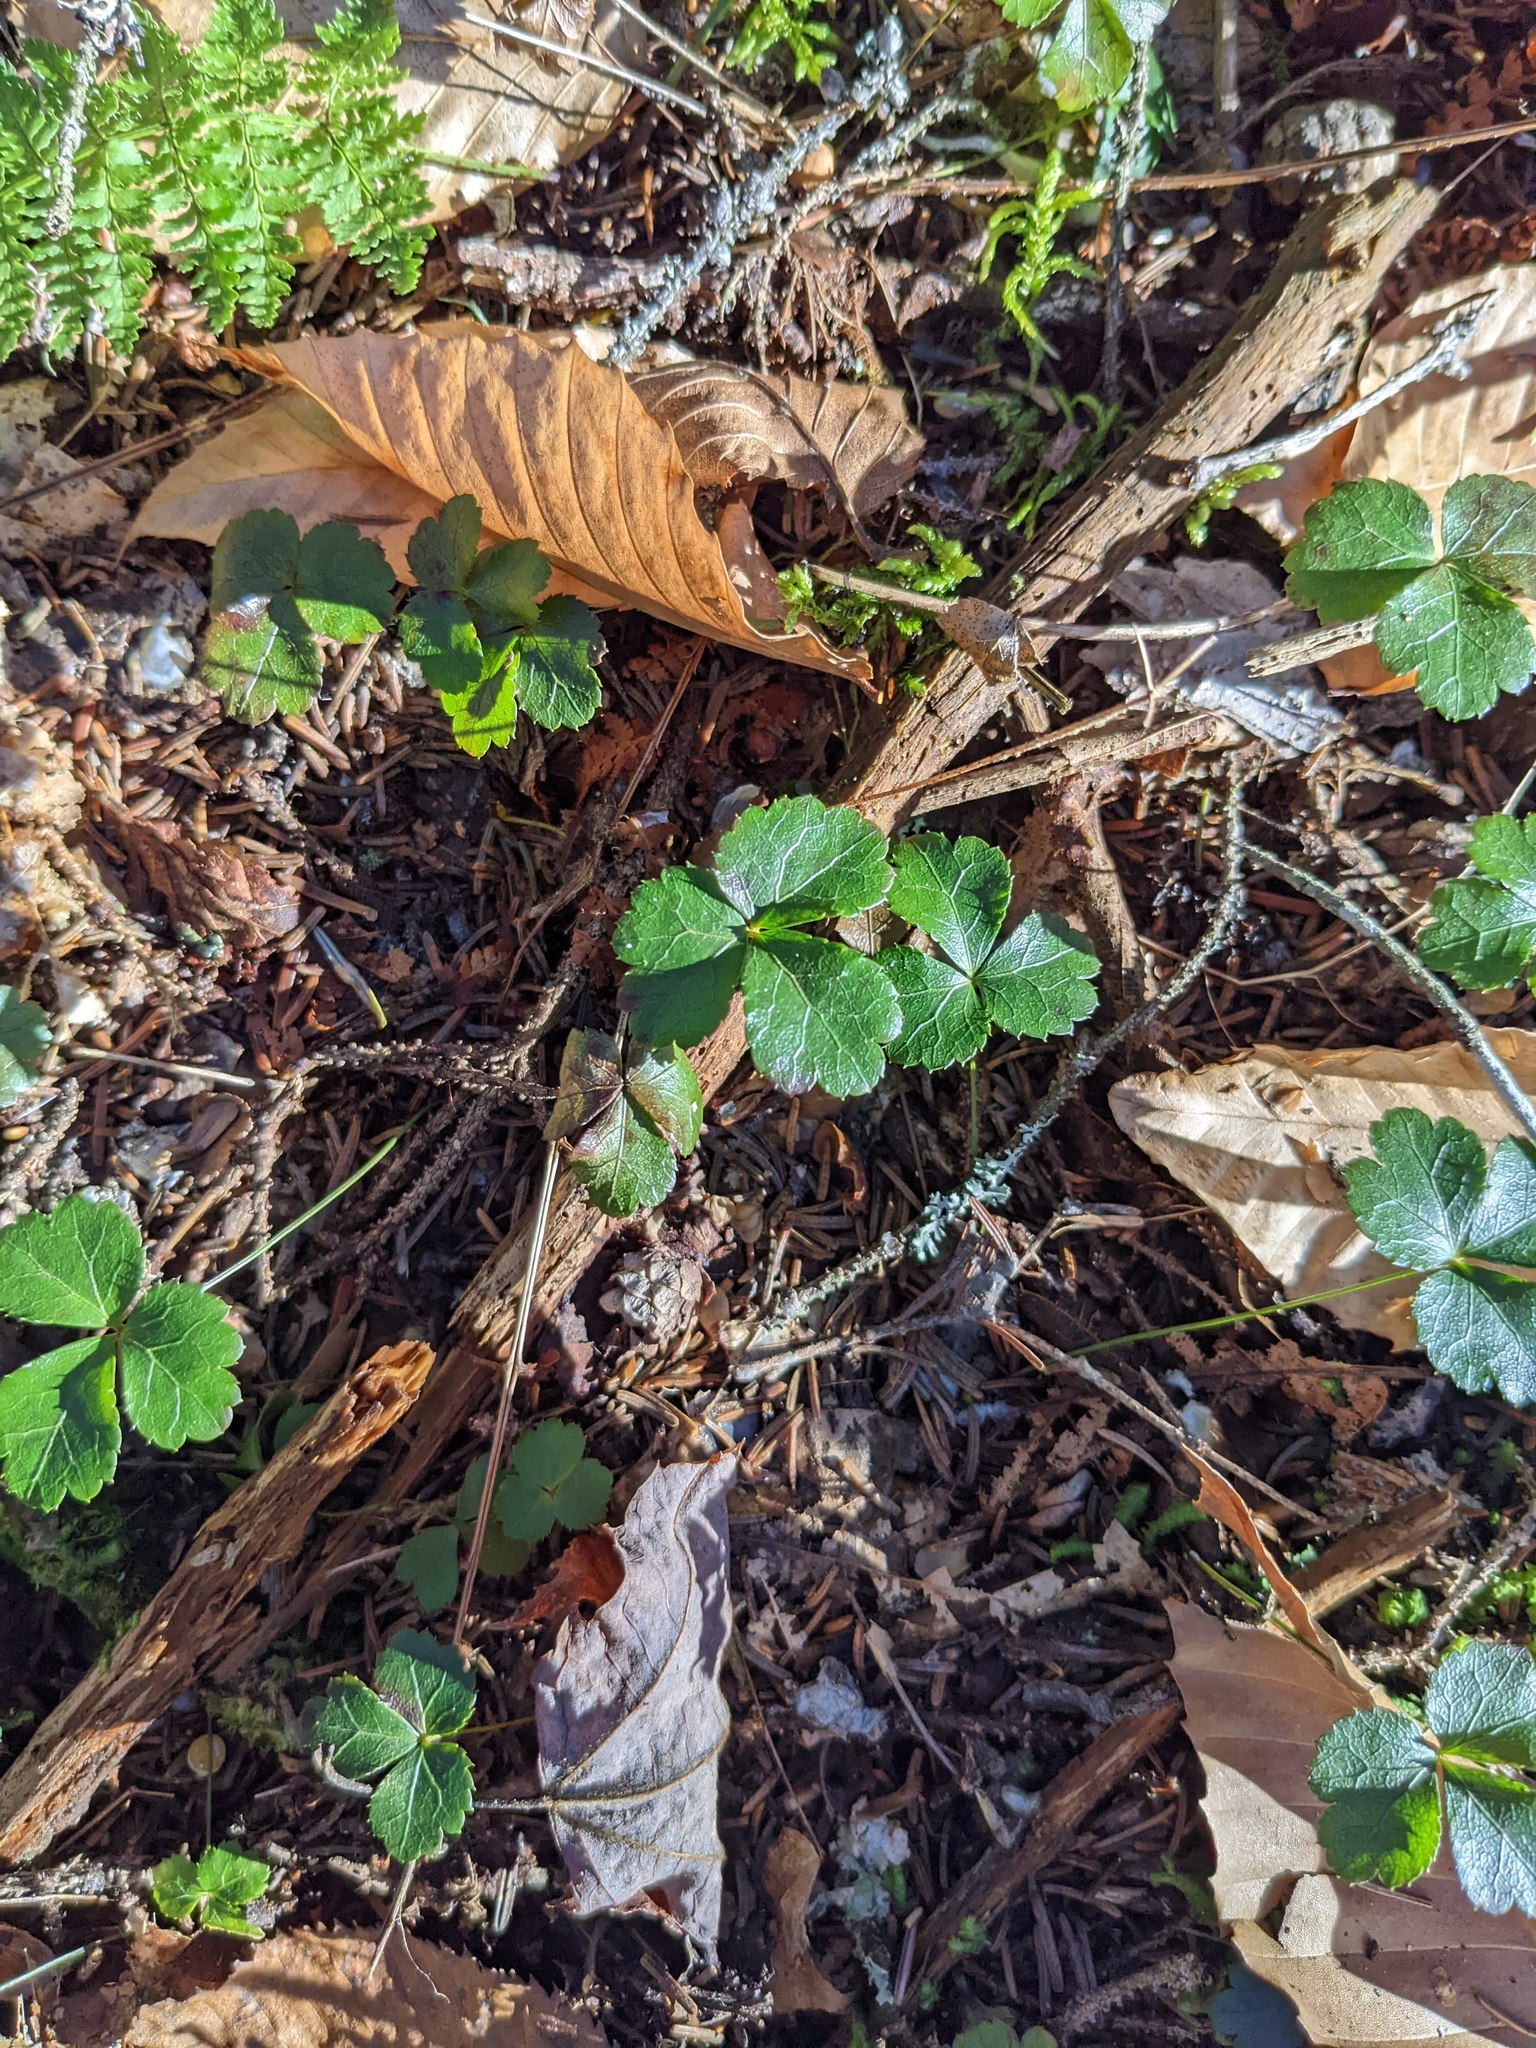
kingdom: Plantae
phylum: Tracheophyta
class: Magnoliopsida
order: Ranunculales
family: Ranunculaceae
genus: Coptis
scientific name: Coptis trifolia
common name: Canker-root
